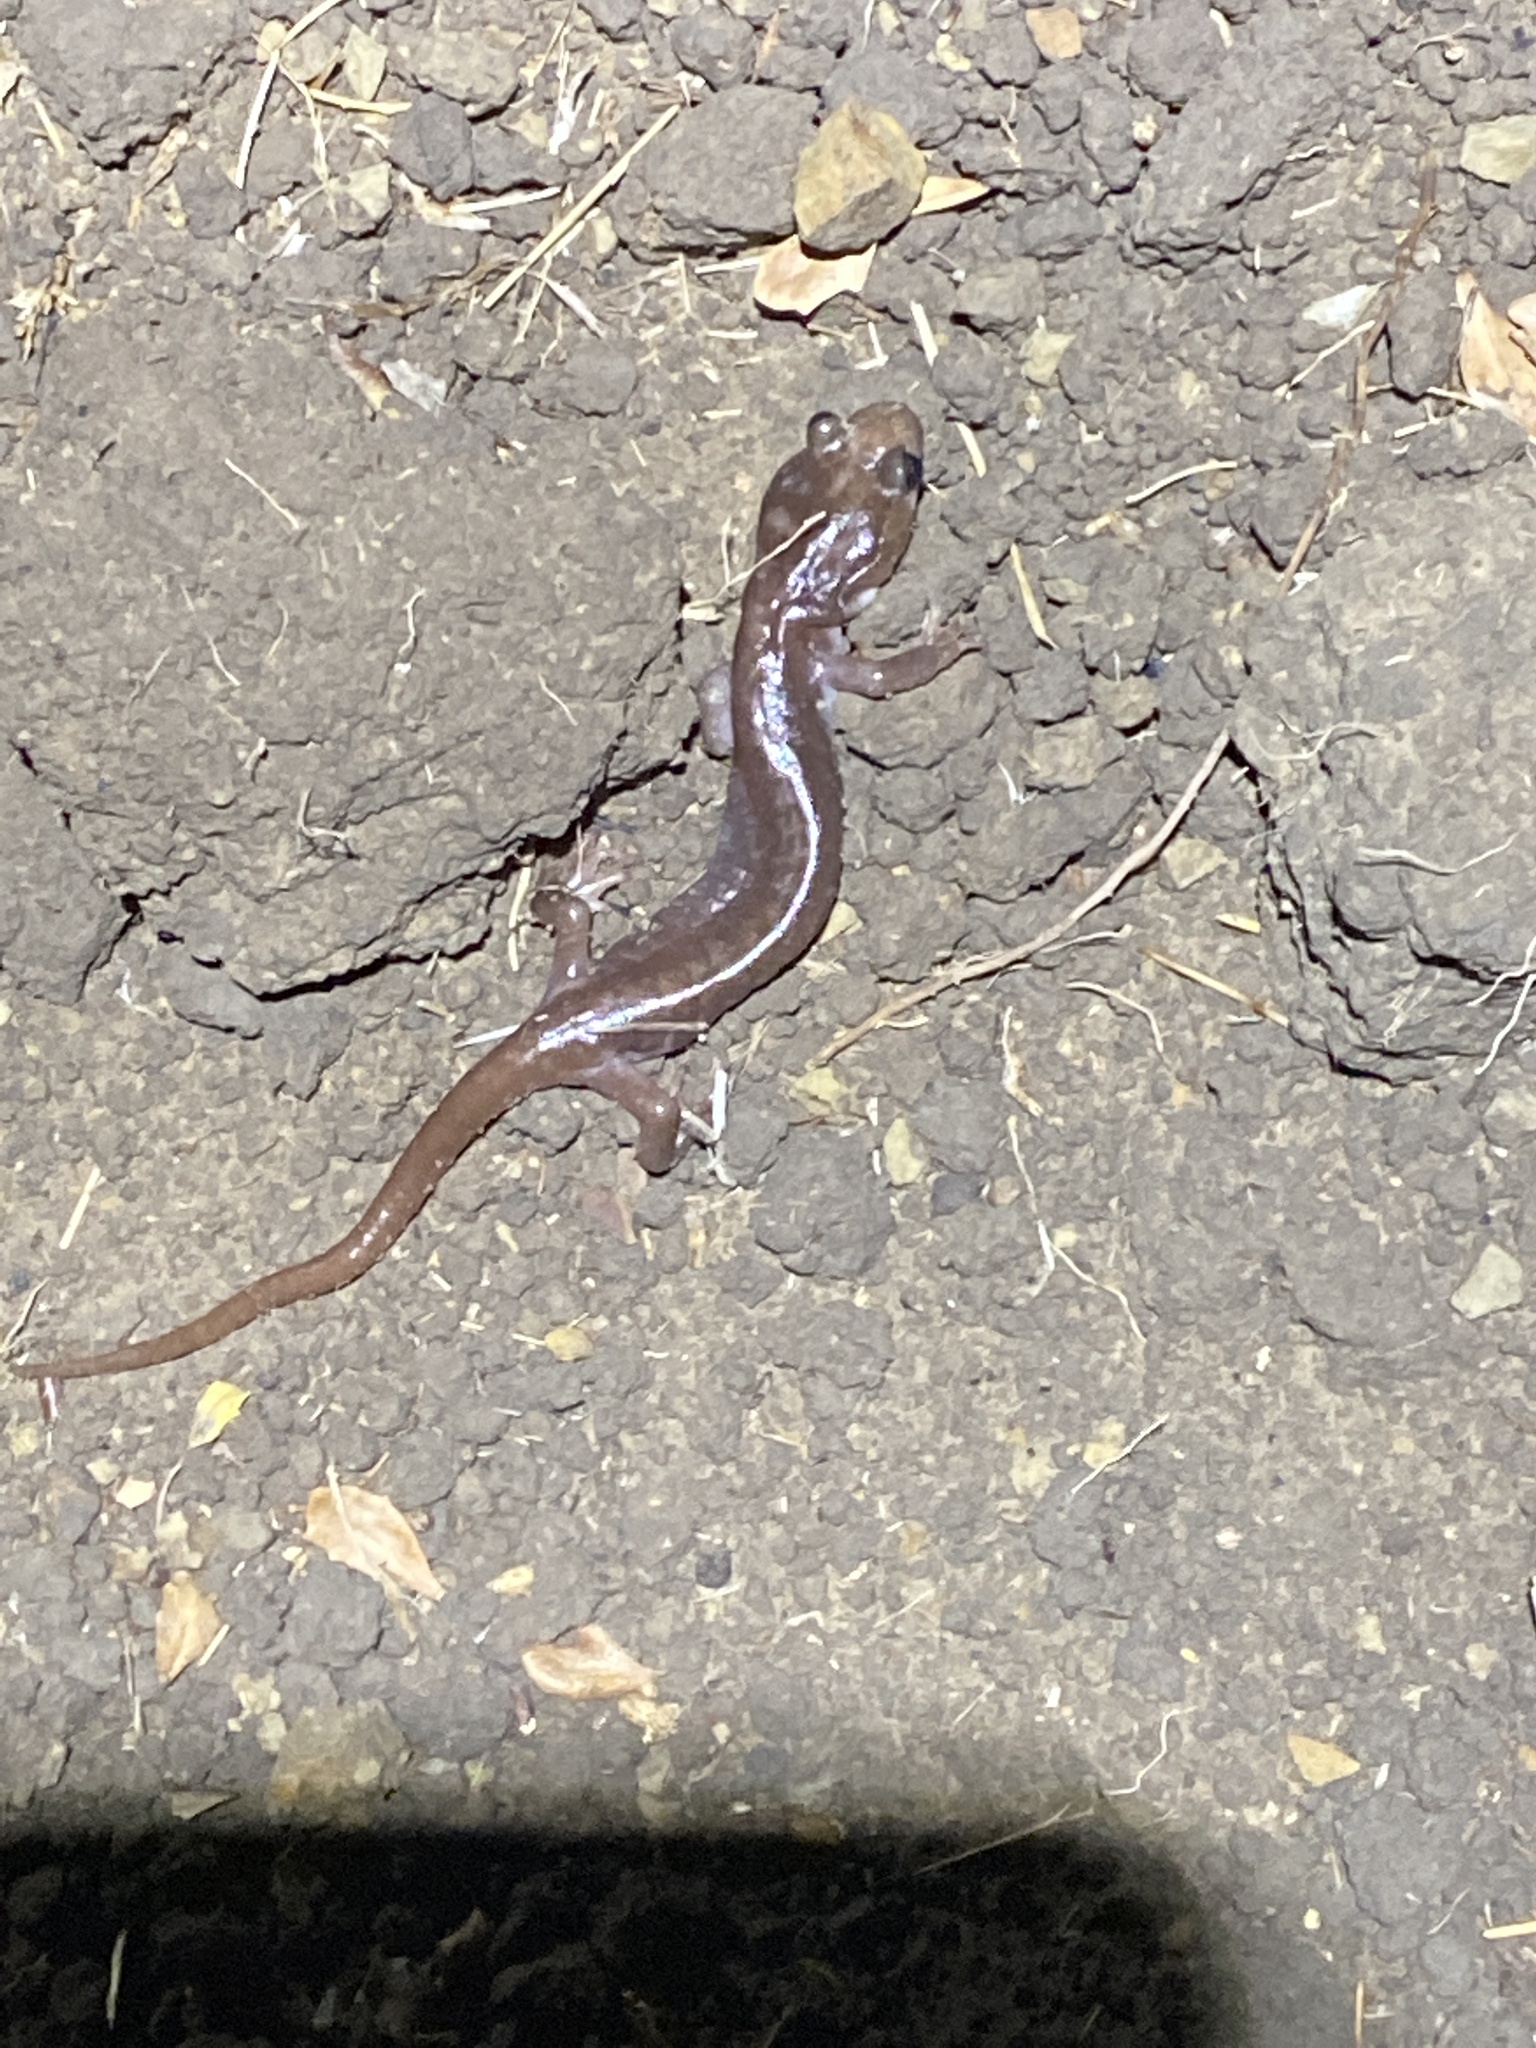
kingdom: Animalia
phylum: Chordata
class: Amphibia
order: Caudata
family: Plethodontidae
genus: Aneides
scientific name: Aneides lugubris
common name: Arboreal salamander
